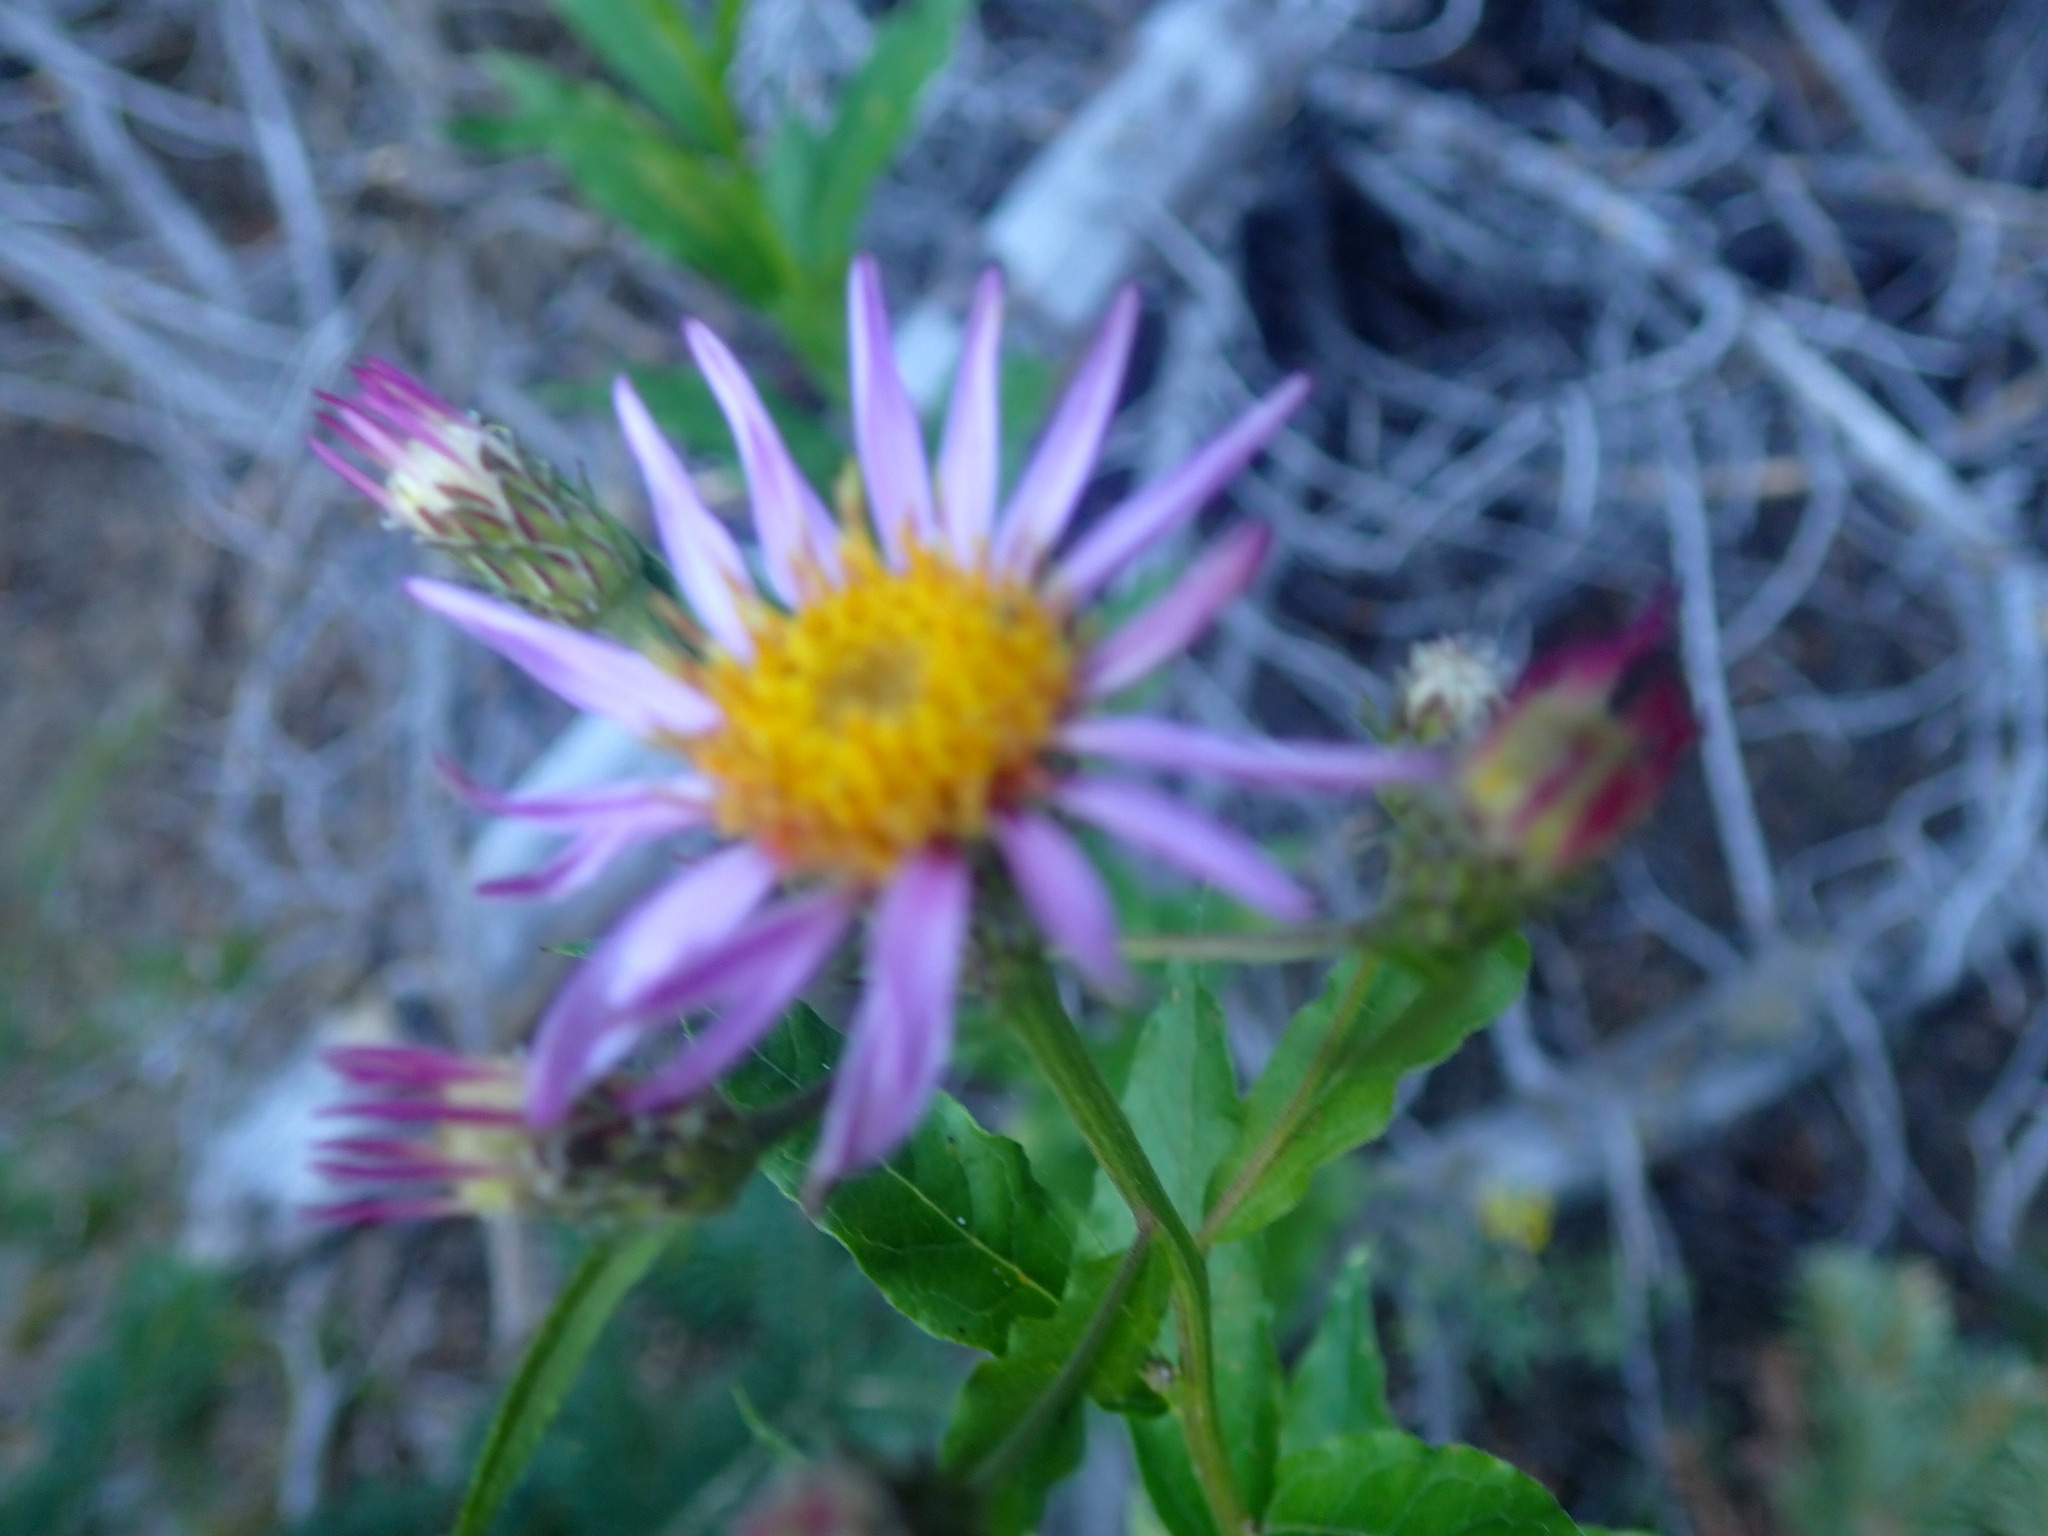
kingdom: Plantae
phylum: Tracheophyta
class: Magnoliopsida
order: Asterales
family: Asteraceae
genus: Eucephalus
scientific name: Eucephalus engelmannii
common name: Engelmann's aster
